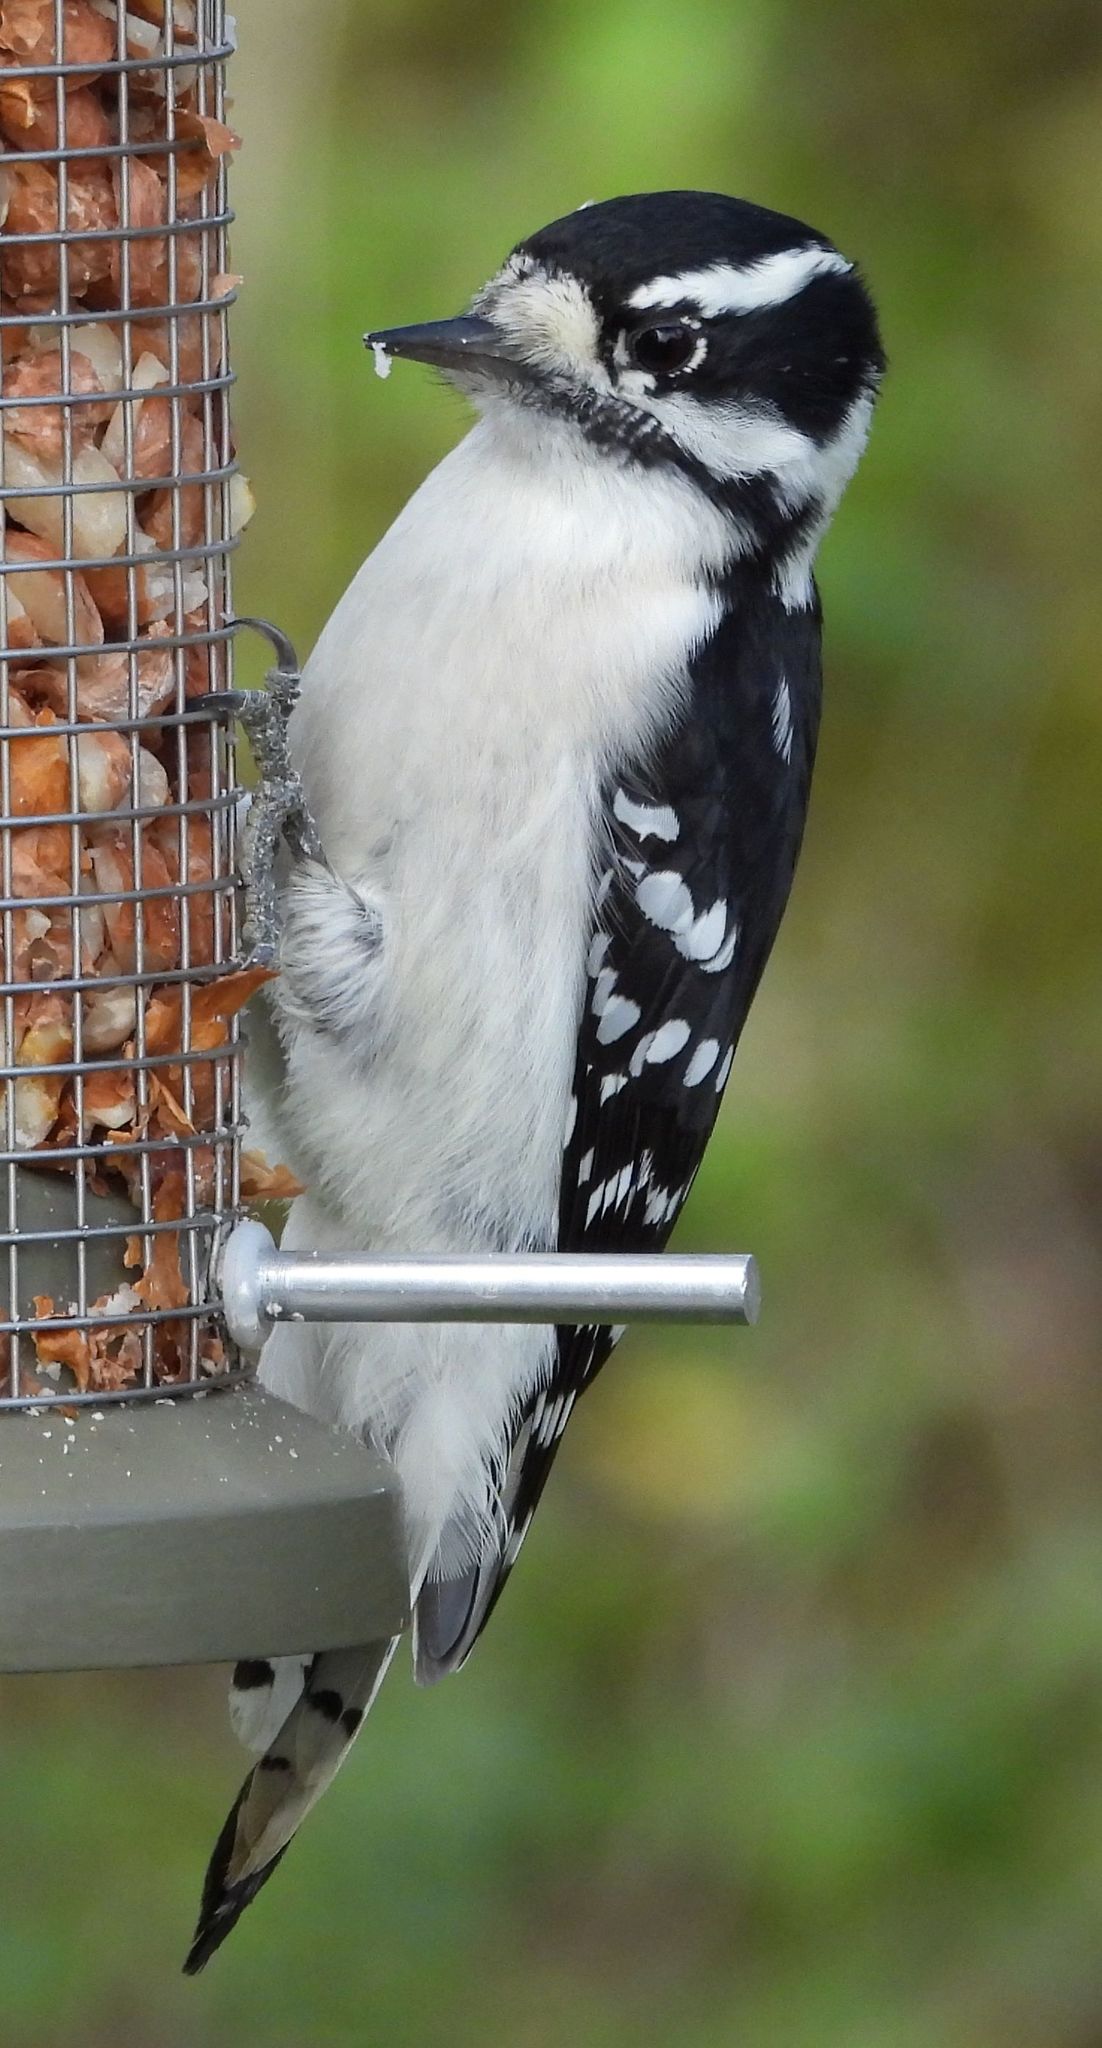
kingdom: Animalia
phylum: Chordata
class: Aves
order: Piciformes
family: Picidae
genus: Dryobates
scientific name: Dryobates pubescens
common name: Downy woodpecker
